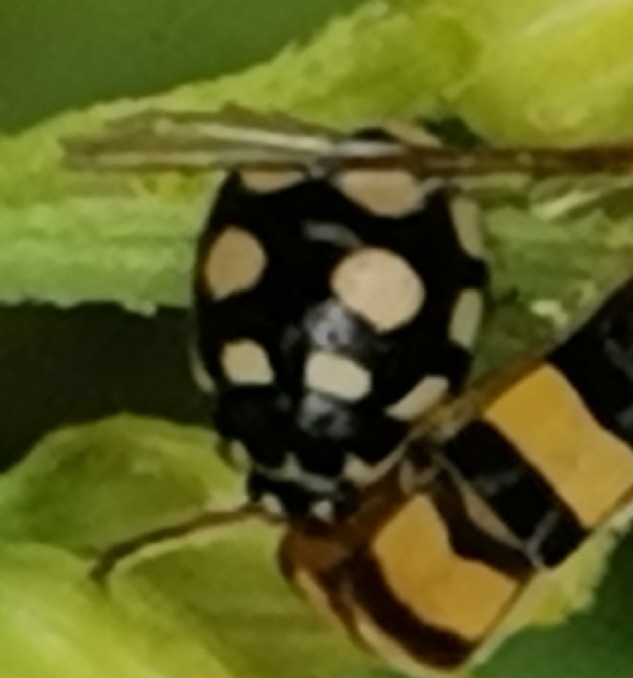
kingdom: Animalia
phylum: Arthropoda
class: Insecta
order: Coleoptera
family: Coccinellidae
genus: Coccinula
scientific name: Coccinula quatuordecimpustulata
